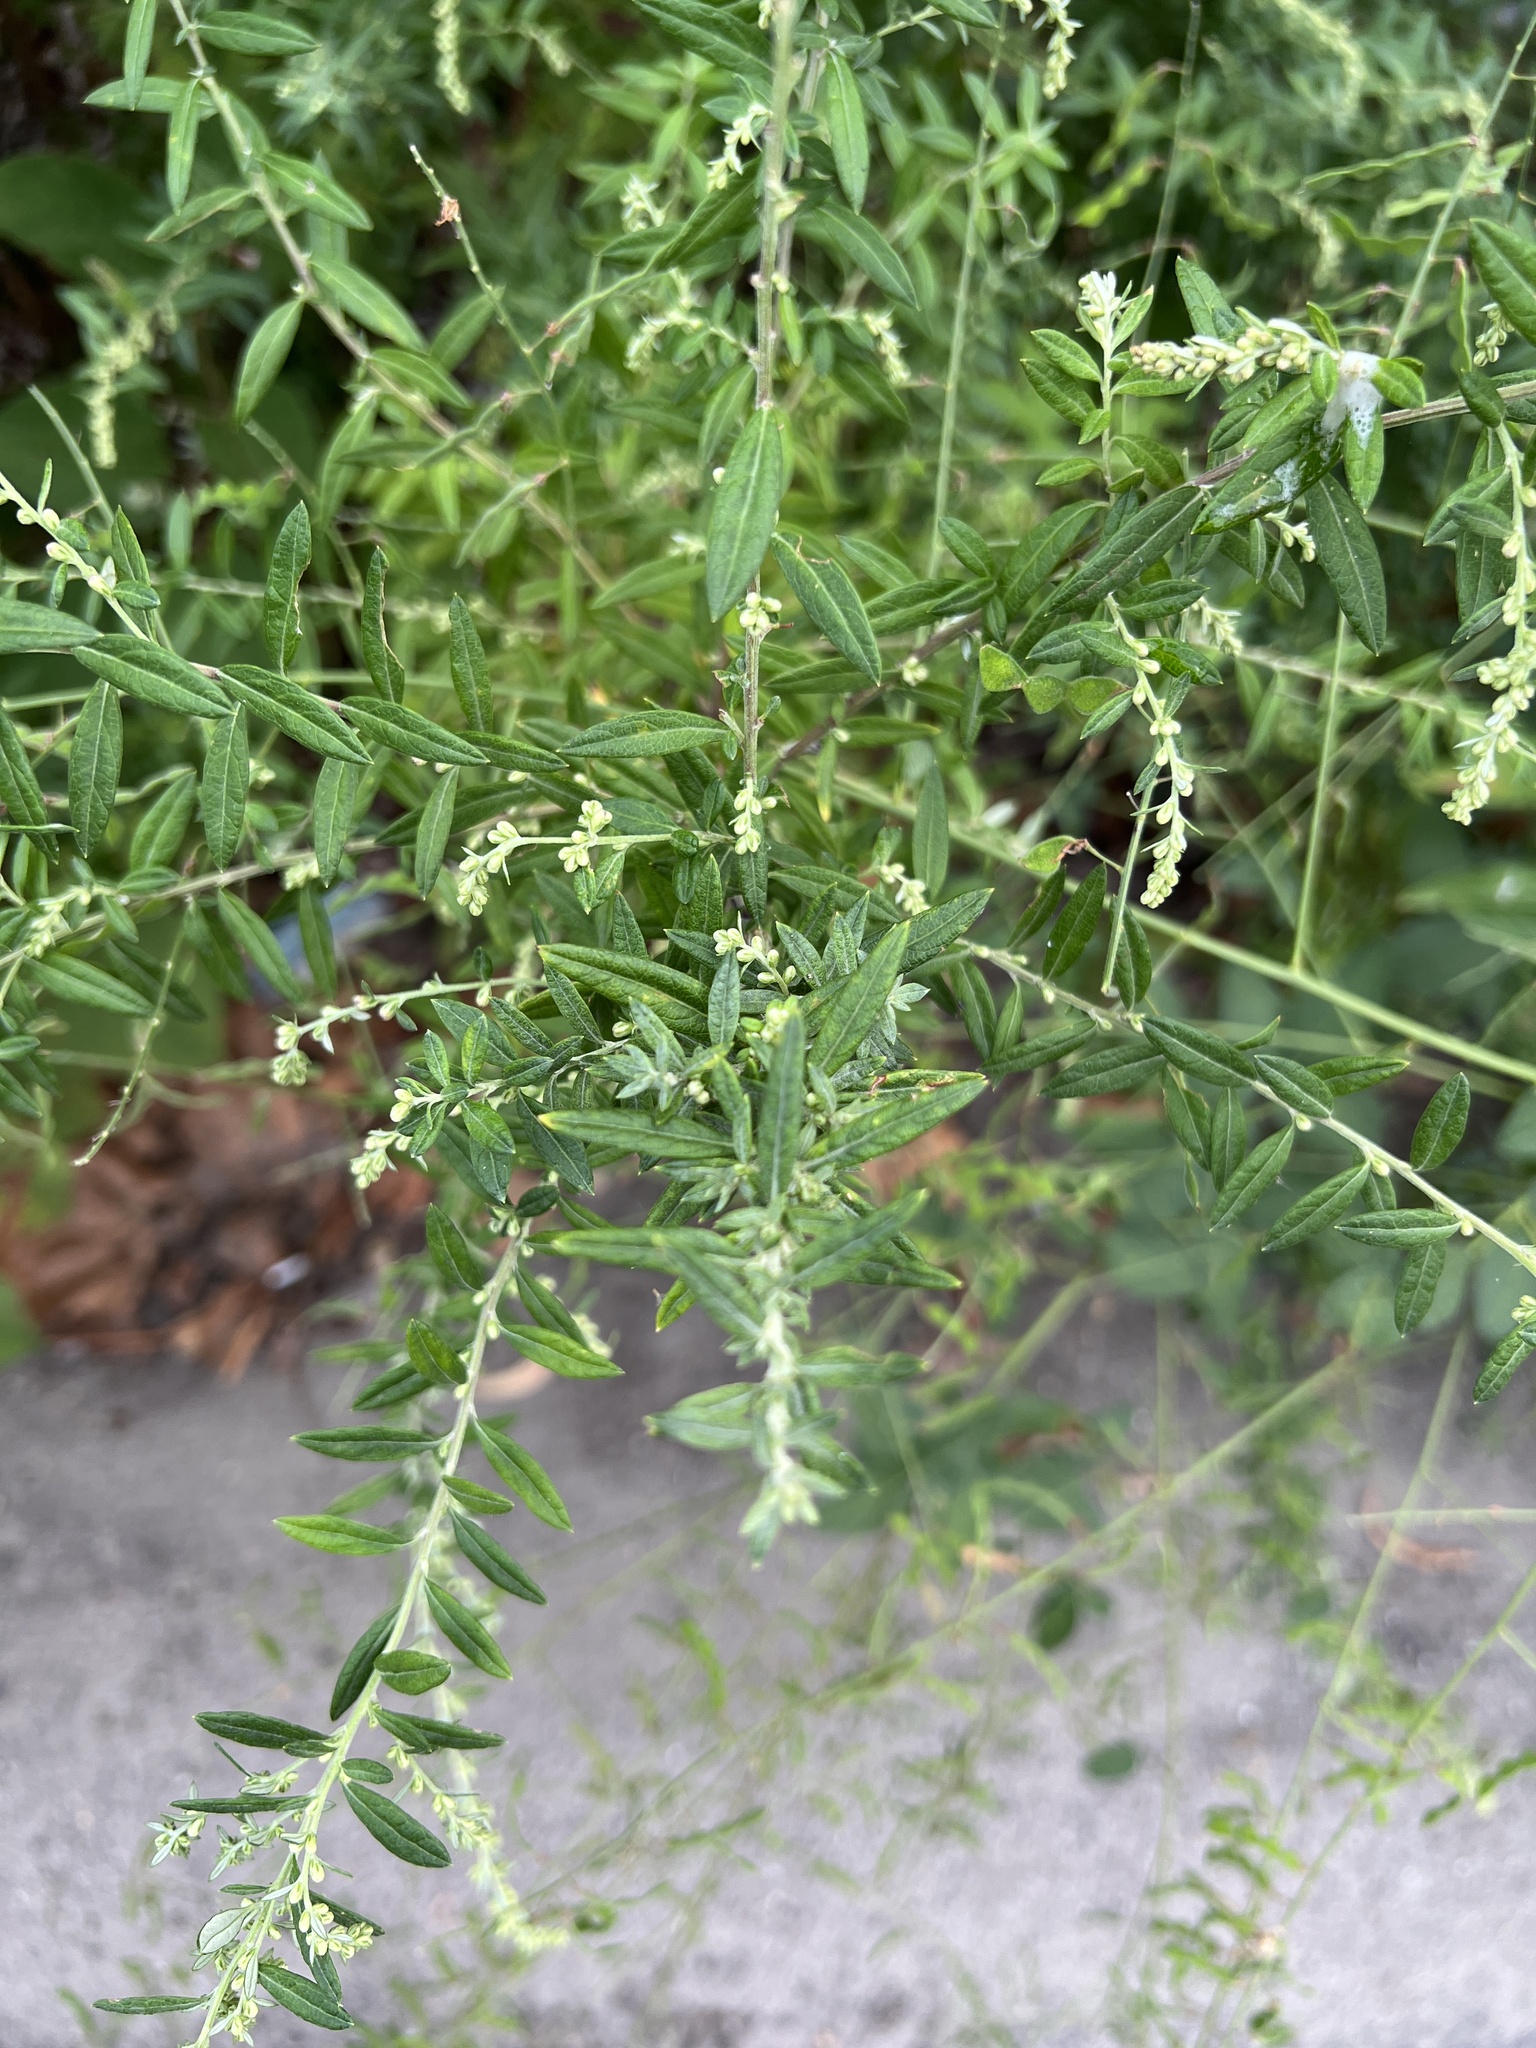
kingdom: Plantae
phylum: Tracheophyta
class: Magnoliopsida
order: Asterales
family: Asteraceae
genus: Artemisia
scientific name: Artemisia vulgaris
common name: Mugwort
